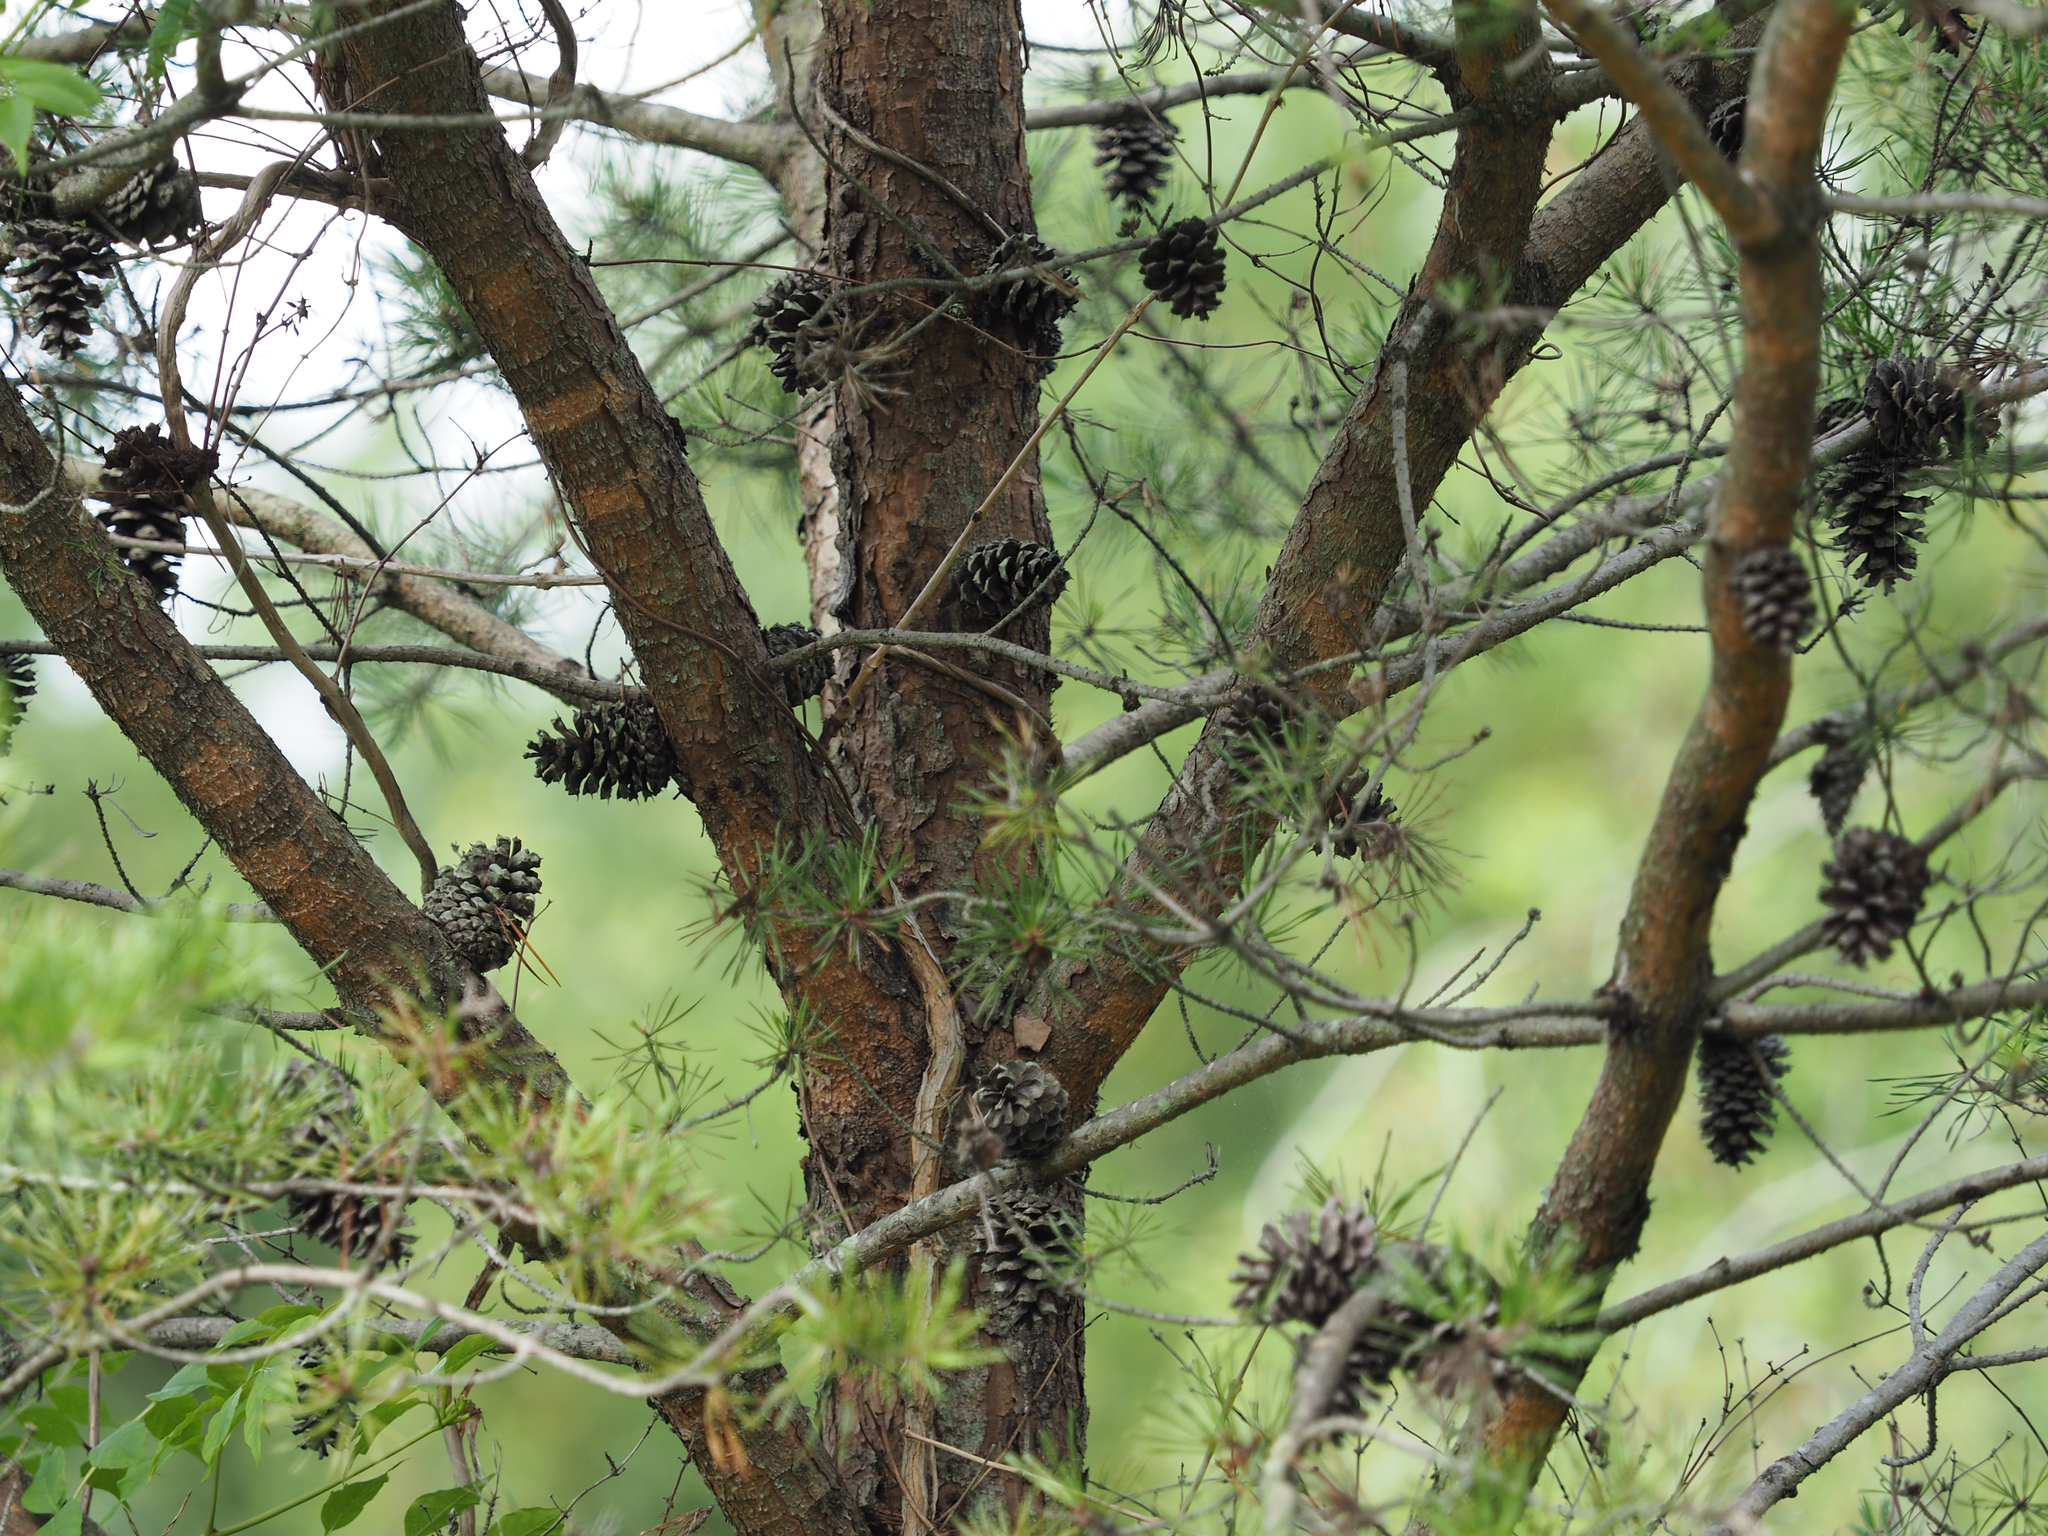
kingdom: Plantae
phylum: Tracheophyta
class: Pinopsida
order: Pinales
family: Pinaceae
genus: Pinus
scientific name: Pinus virginiana
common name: Scrub pine
